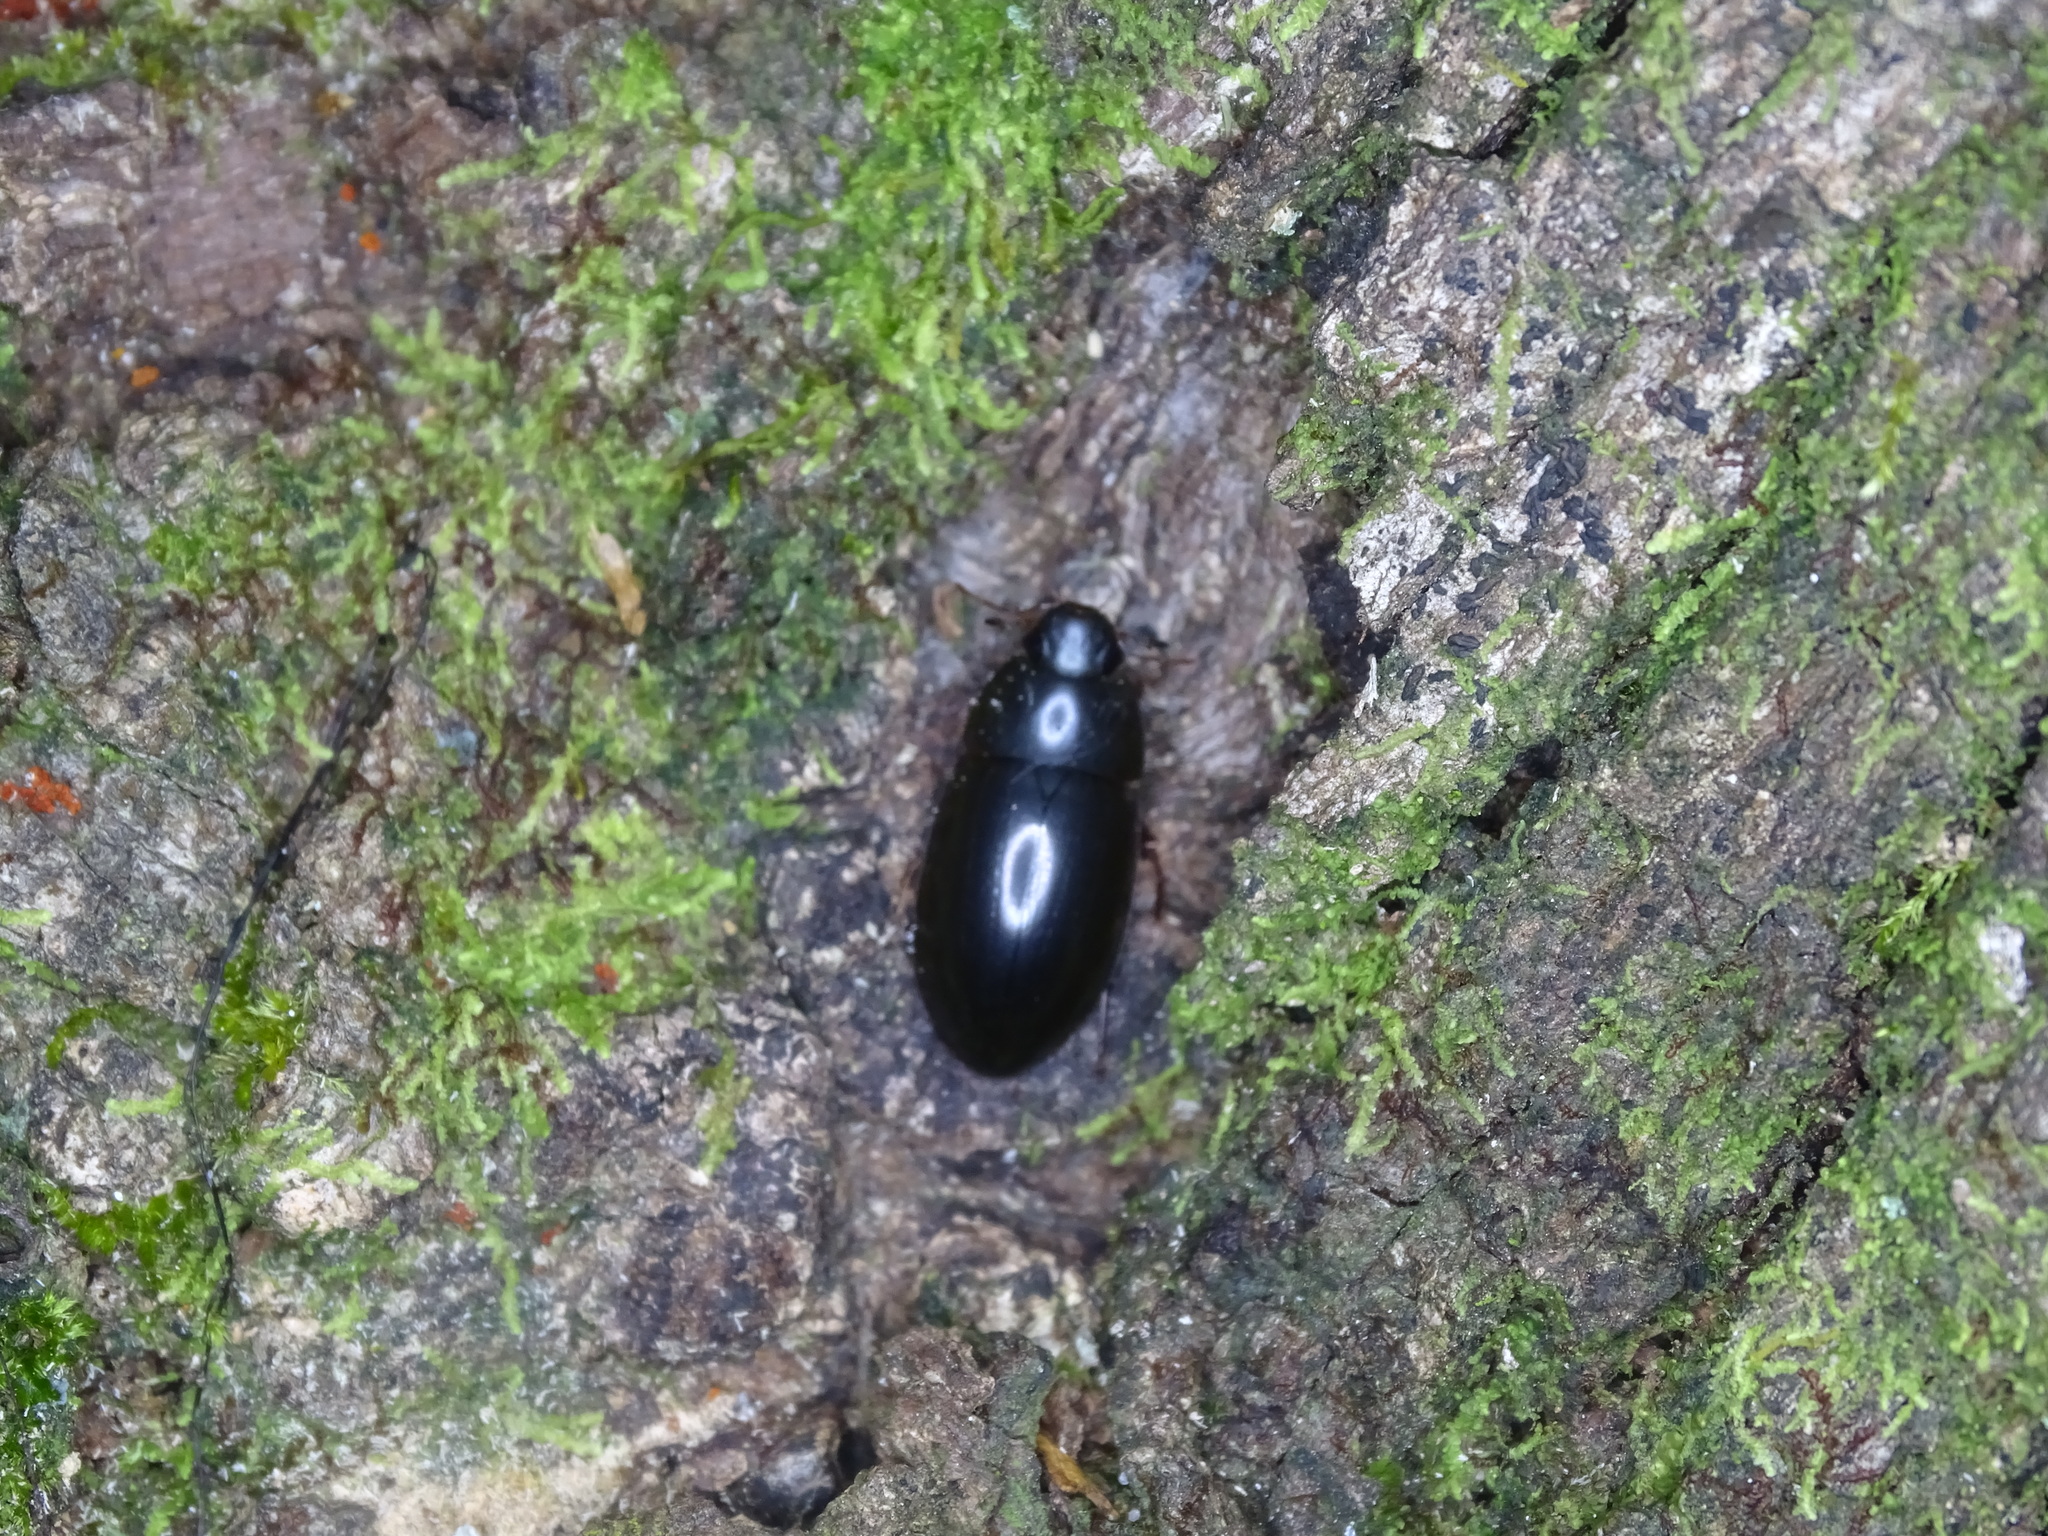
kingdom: Animalia
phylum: Arthropoda
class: Insecta
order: Coleoptera
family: Hydrophilidae
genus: Hydrobiomorpha
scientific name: Hydrobiomorpha casta
